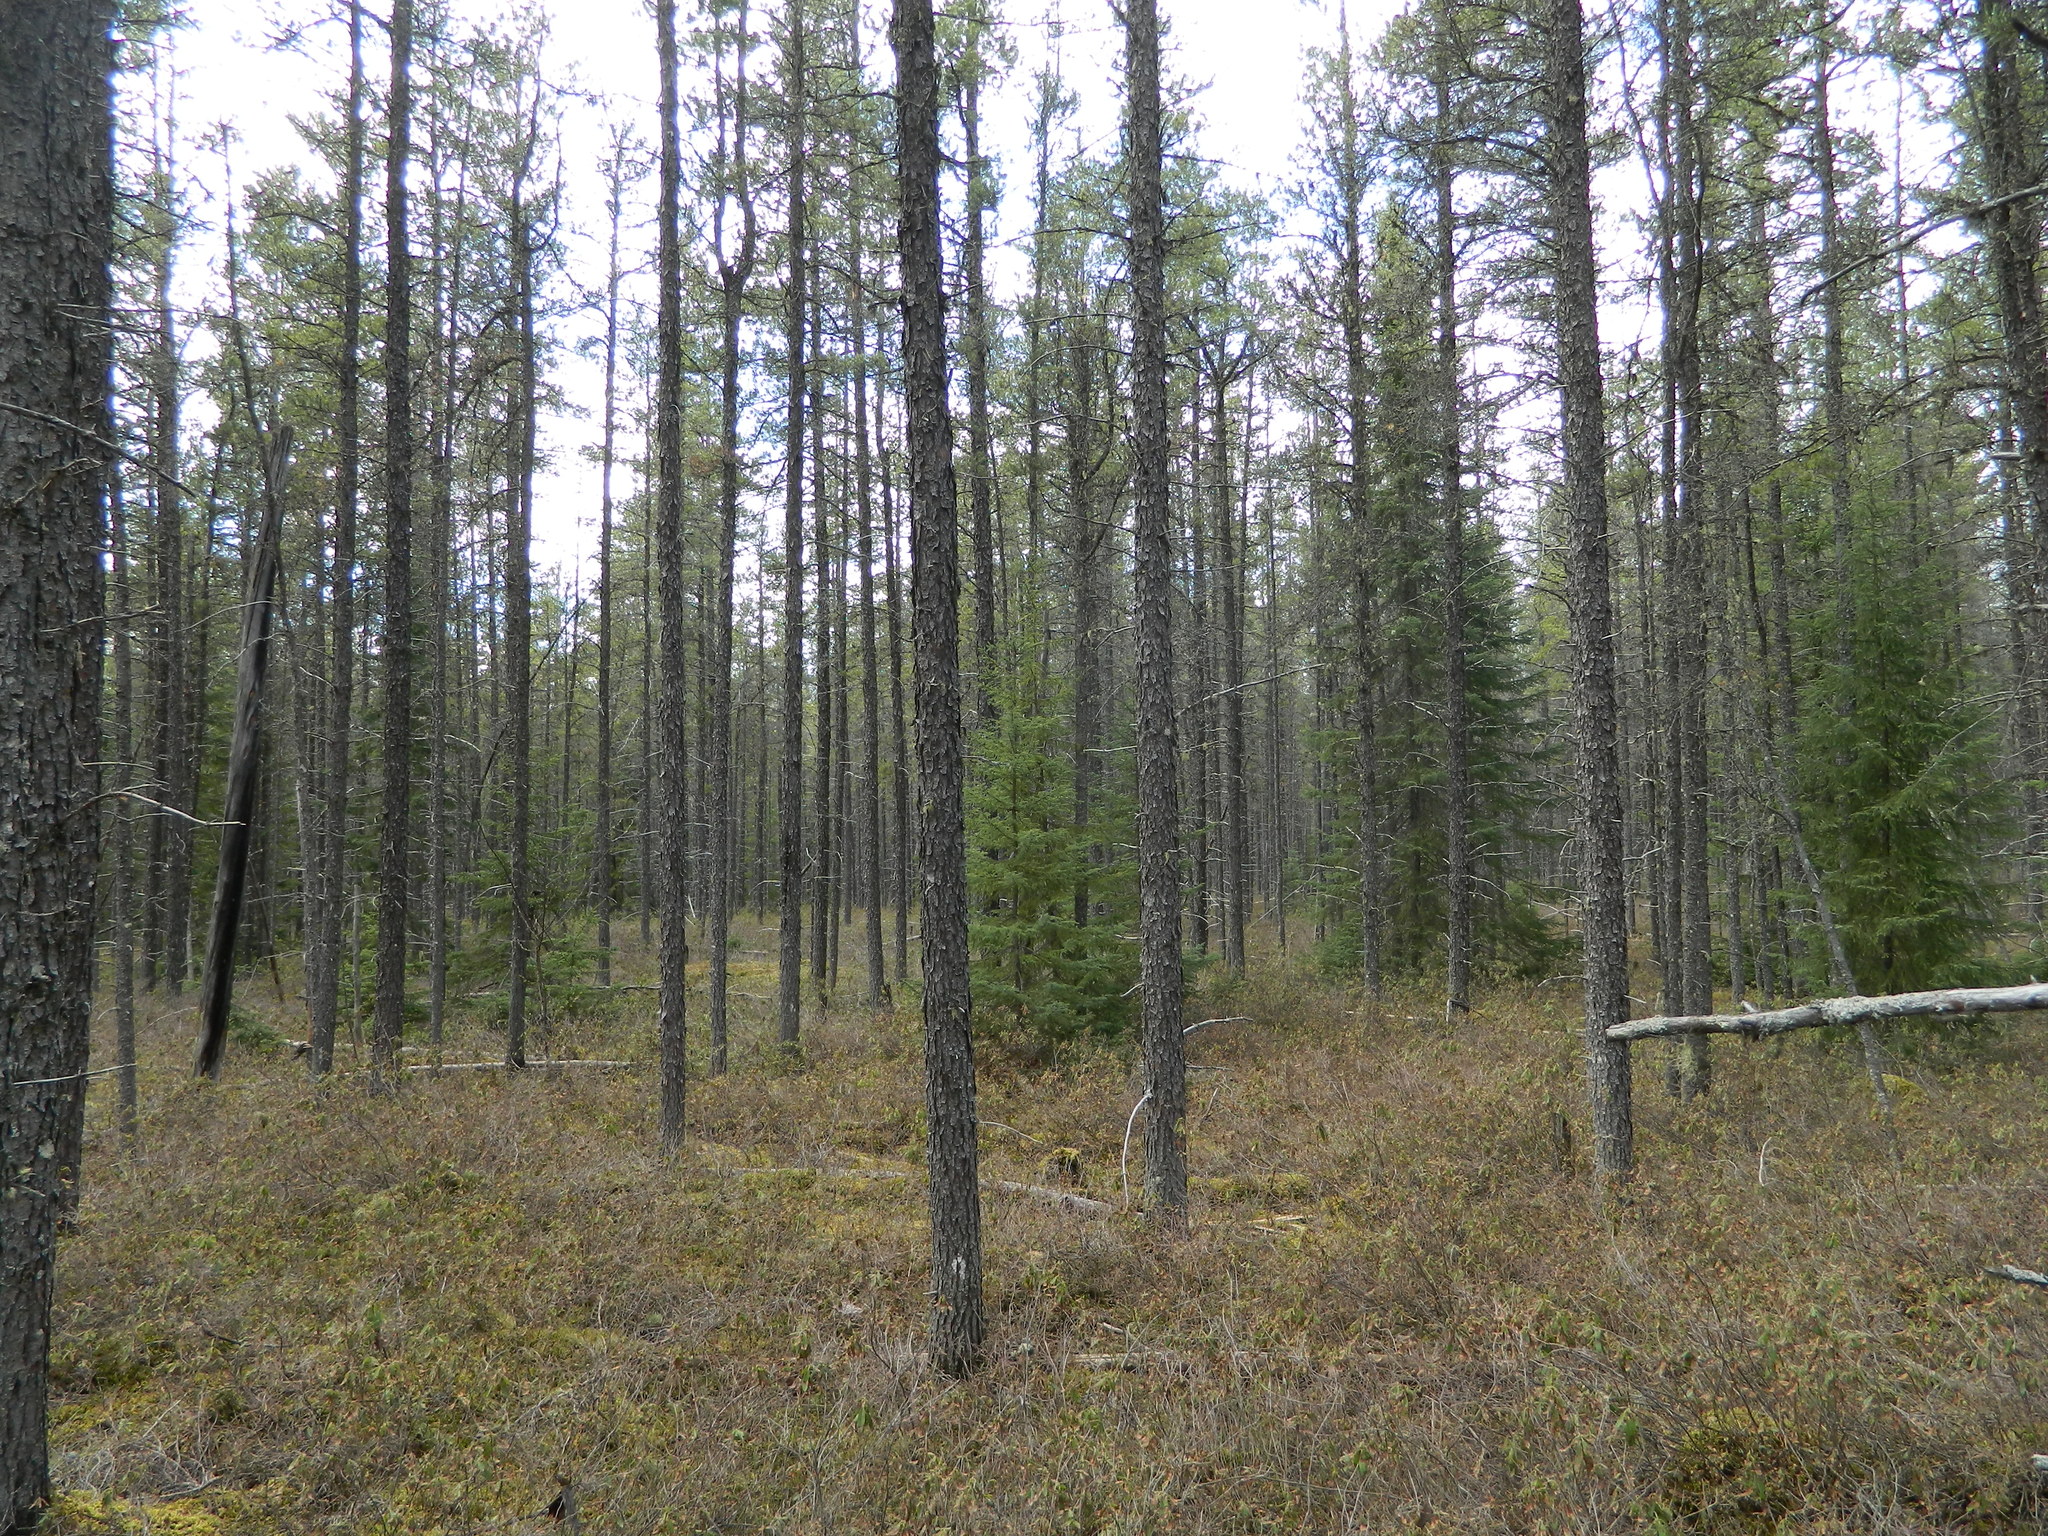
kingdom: Plantae
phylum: Tracheophyta
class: Pinopsida
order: Pinales
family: Pinaceae
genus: Pinus
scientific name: Pinus banksiana
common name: Jack pine
